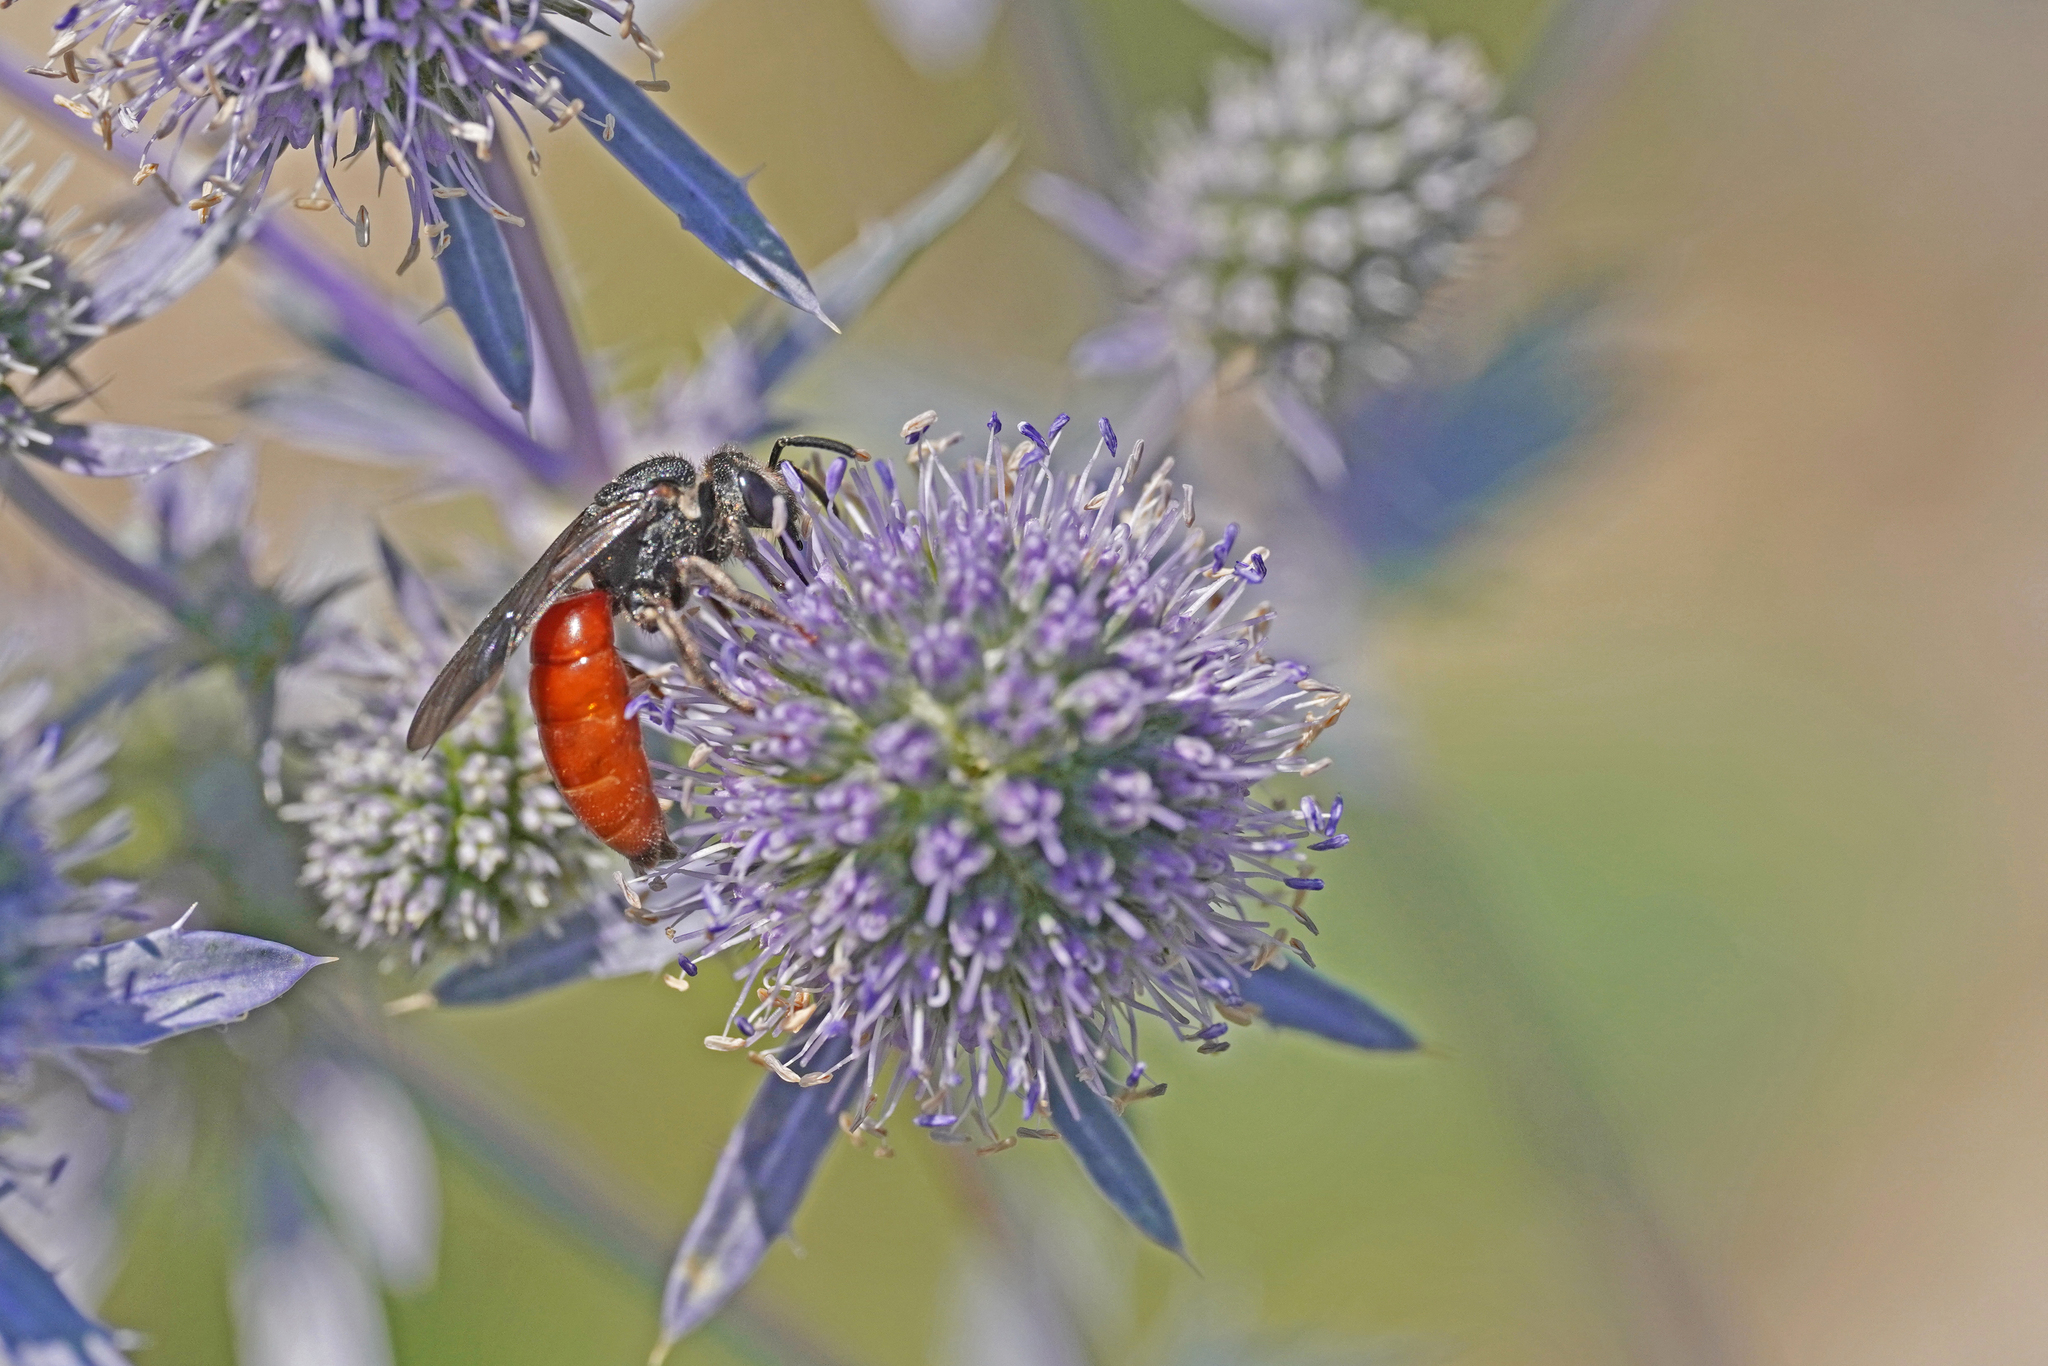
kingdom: Animalia
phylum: Arthropoda
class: Insecta
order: Hymenoptera
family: Halictidae
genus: Sphecodes
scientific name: Sphecodes albilabris
